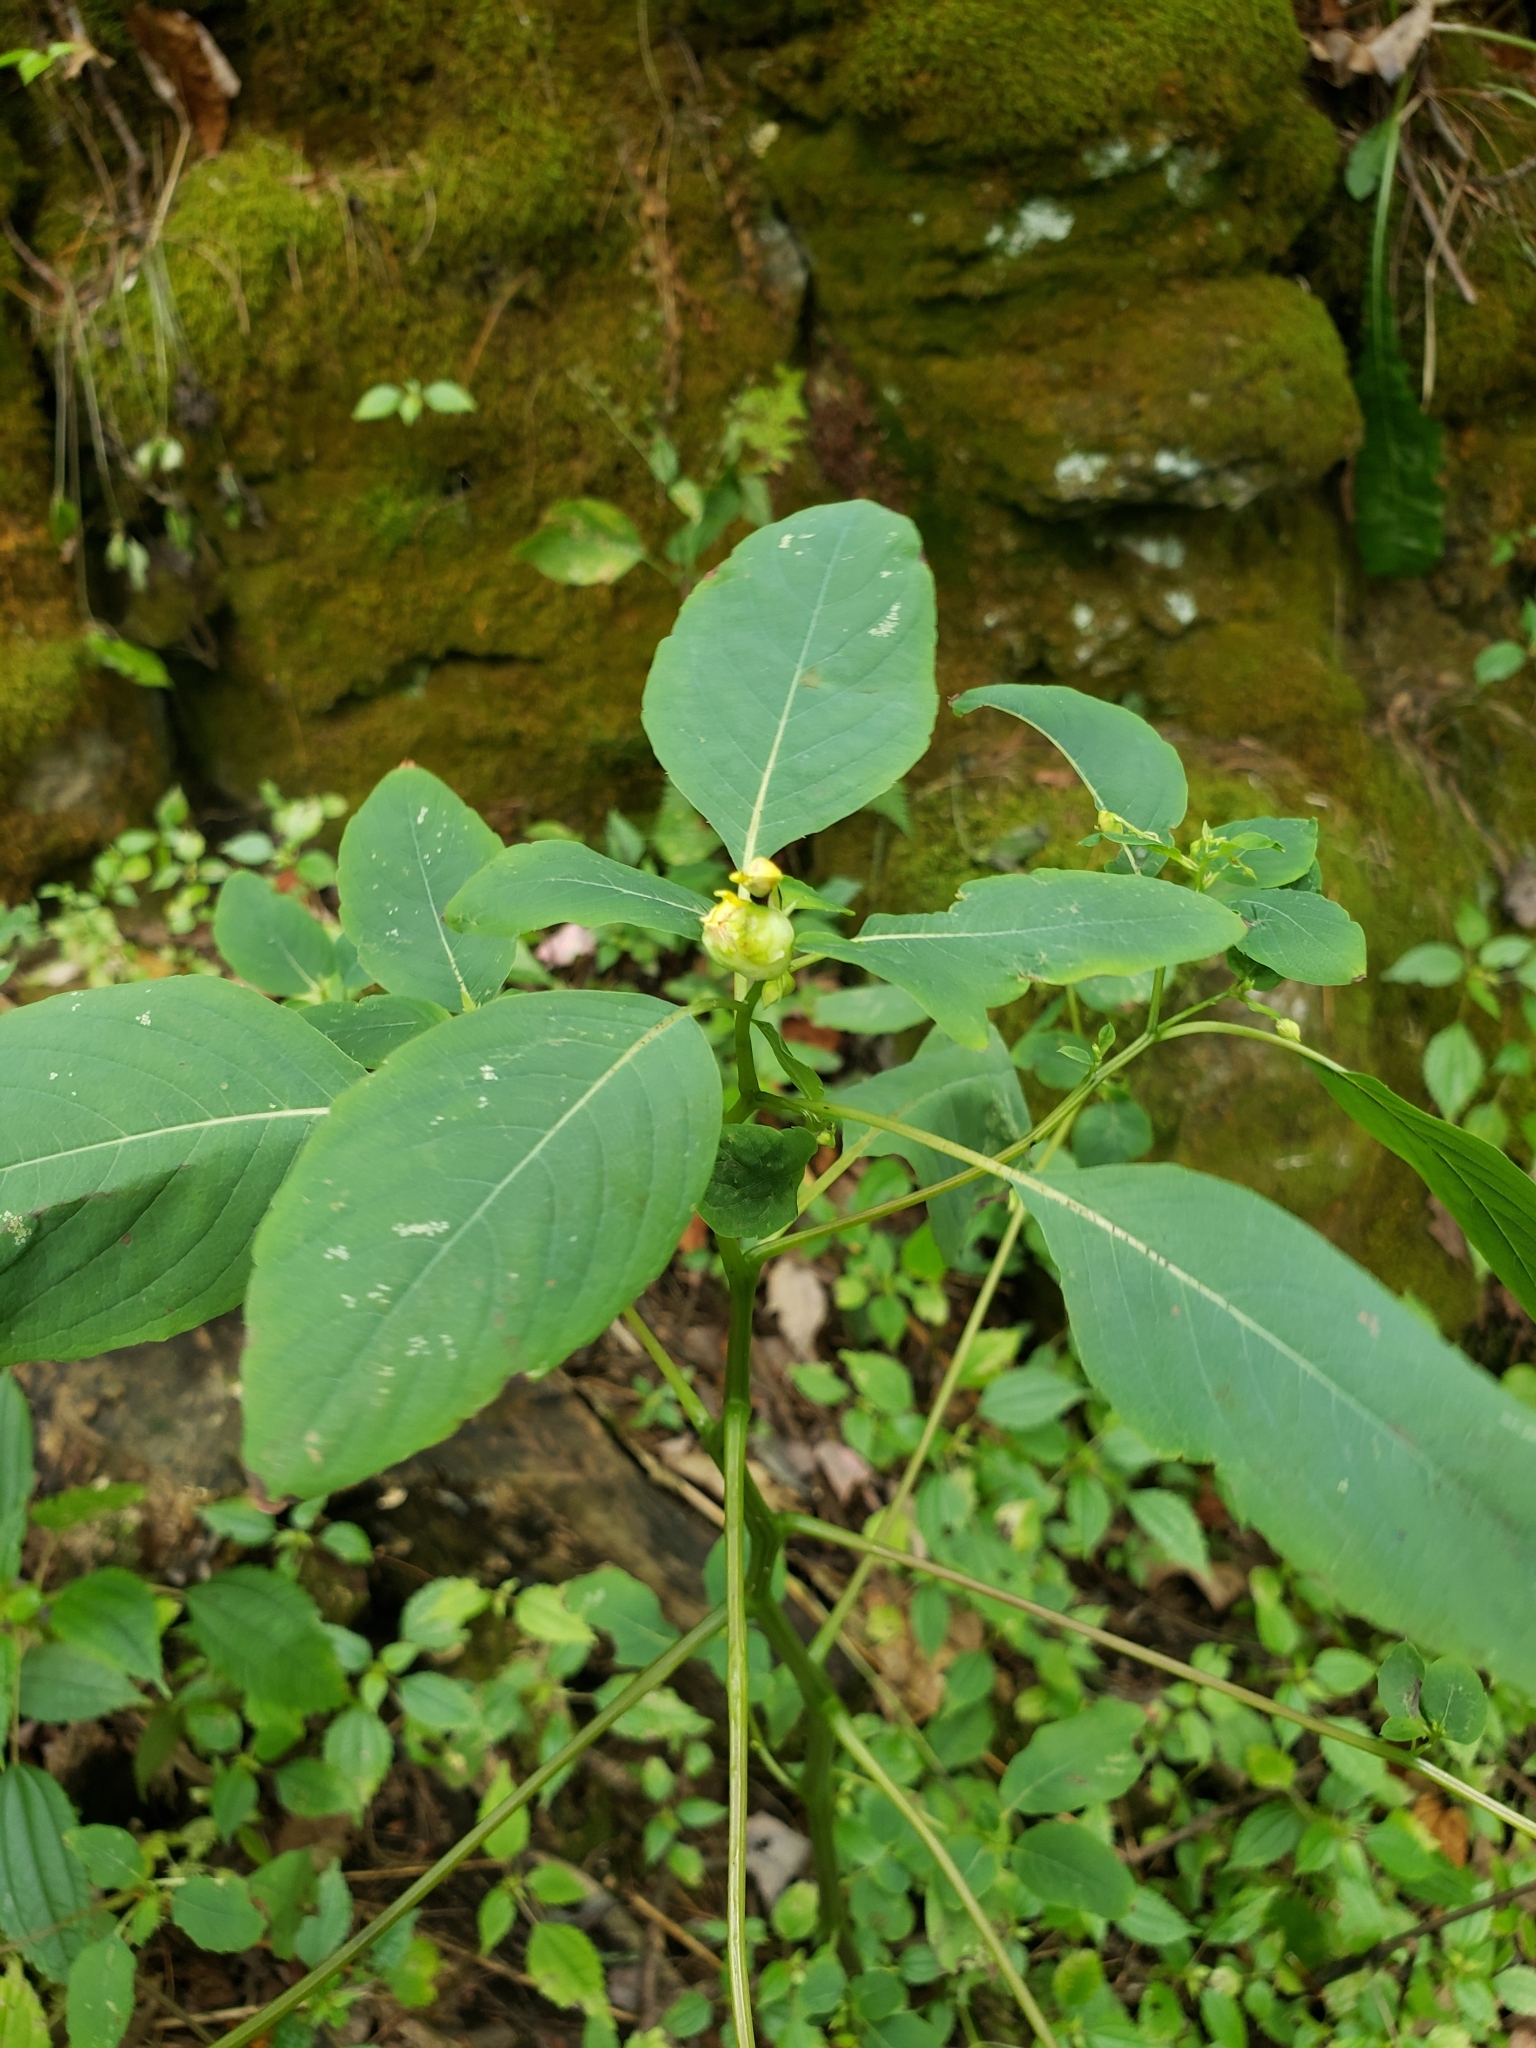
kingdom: Animalia
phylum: Arthropoda
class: Insecta
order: Diptera
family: Cecidomyiidae
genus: Schizomyia
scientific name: Schizomyia impatientis
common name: Jewelweed gall midge
